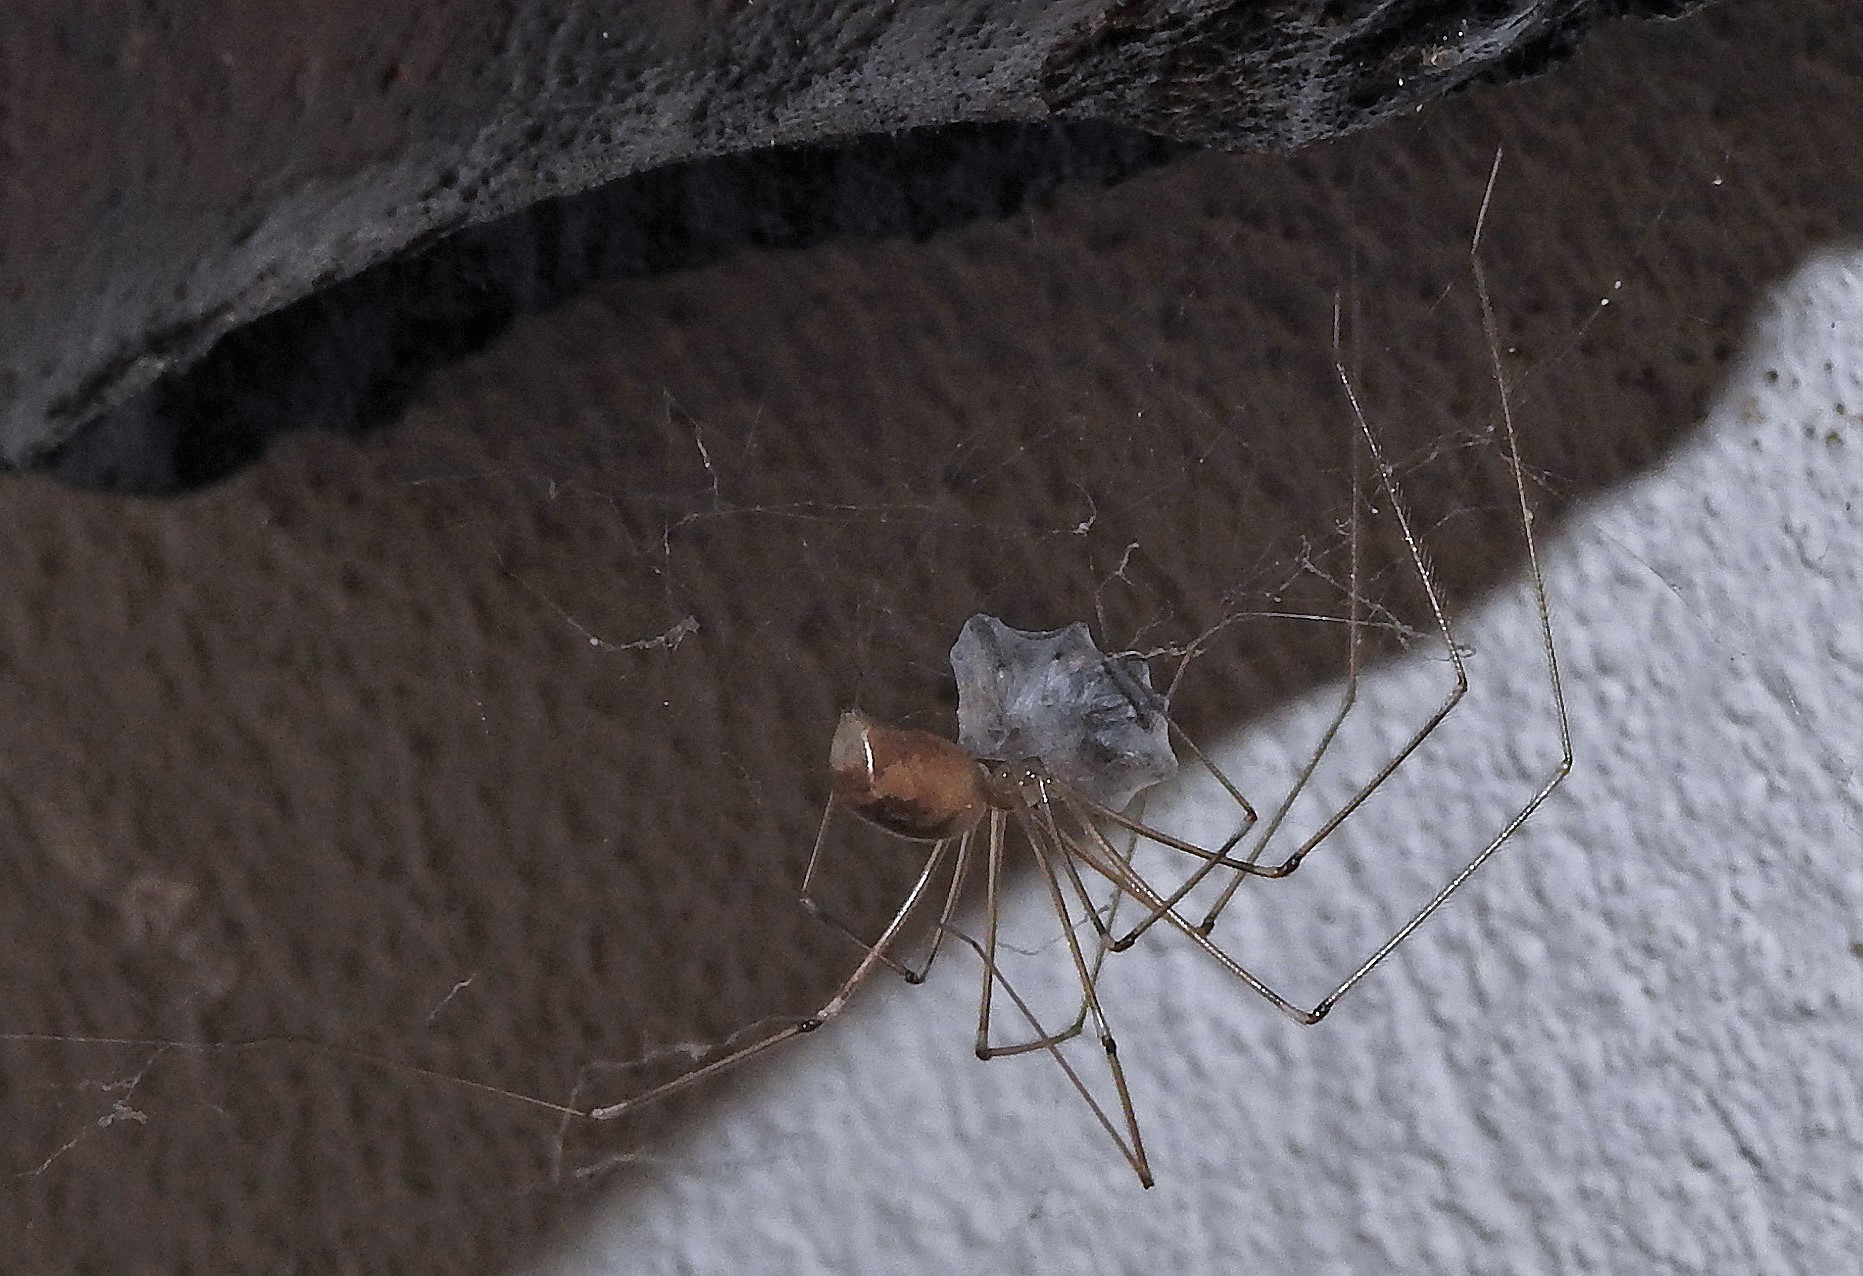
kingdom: Animalia
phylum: Arthropoda
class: Arachnida
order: Araneae
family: Pholcidae
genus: Pholcus
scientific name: Pholcus phalangioides
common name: Longbodied cellar spider
